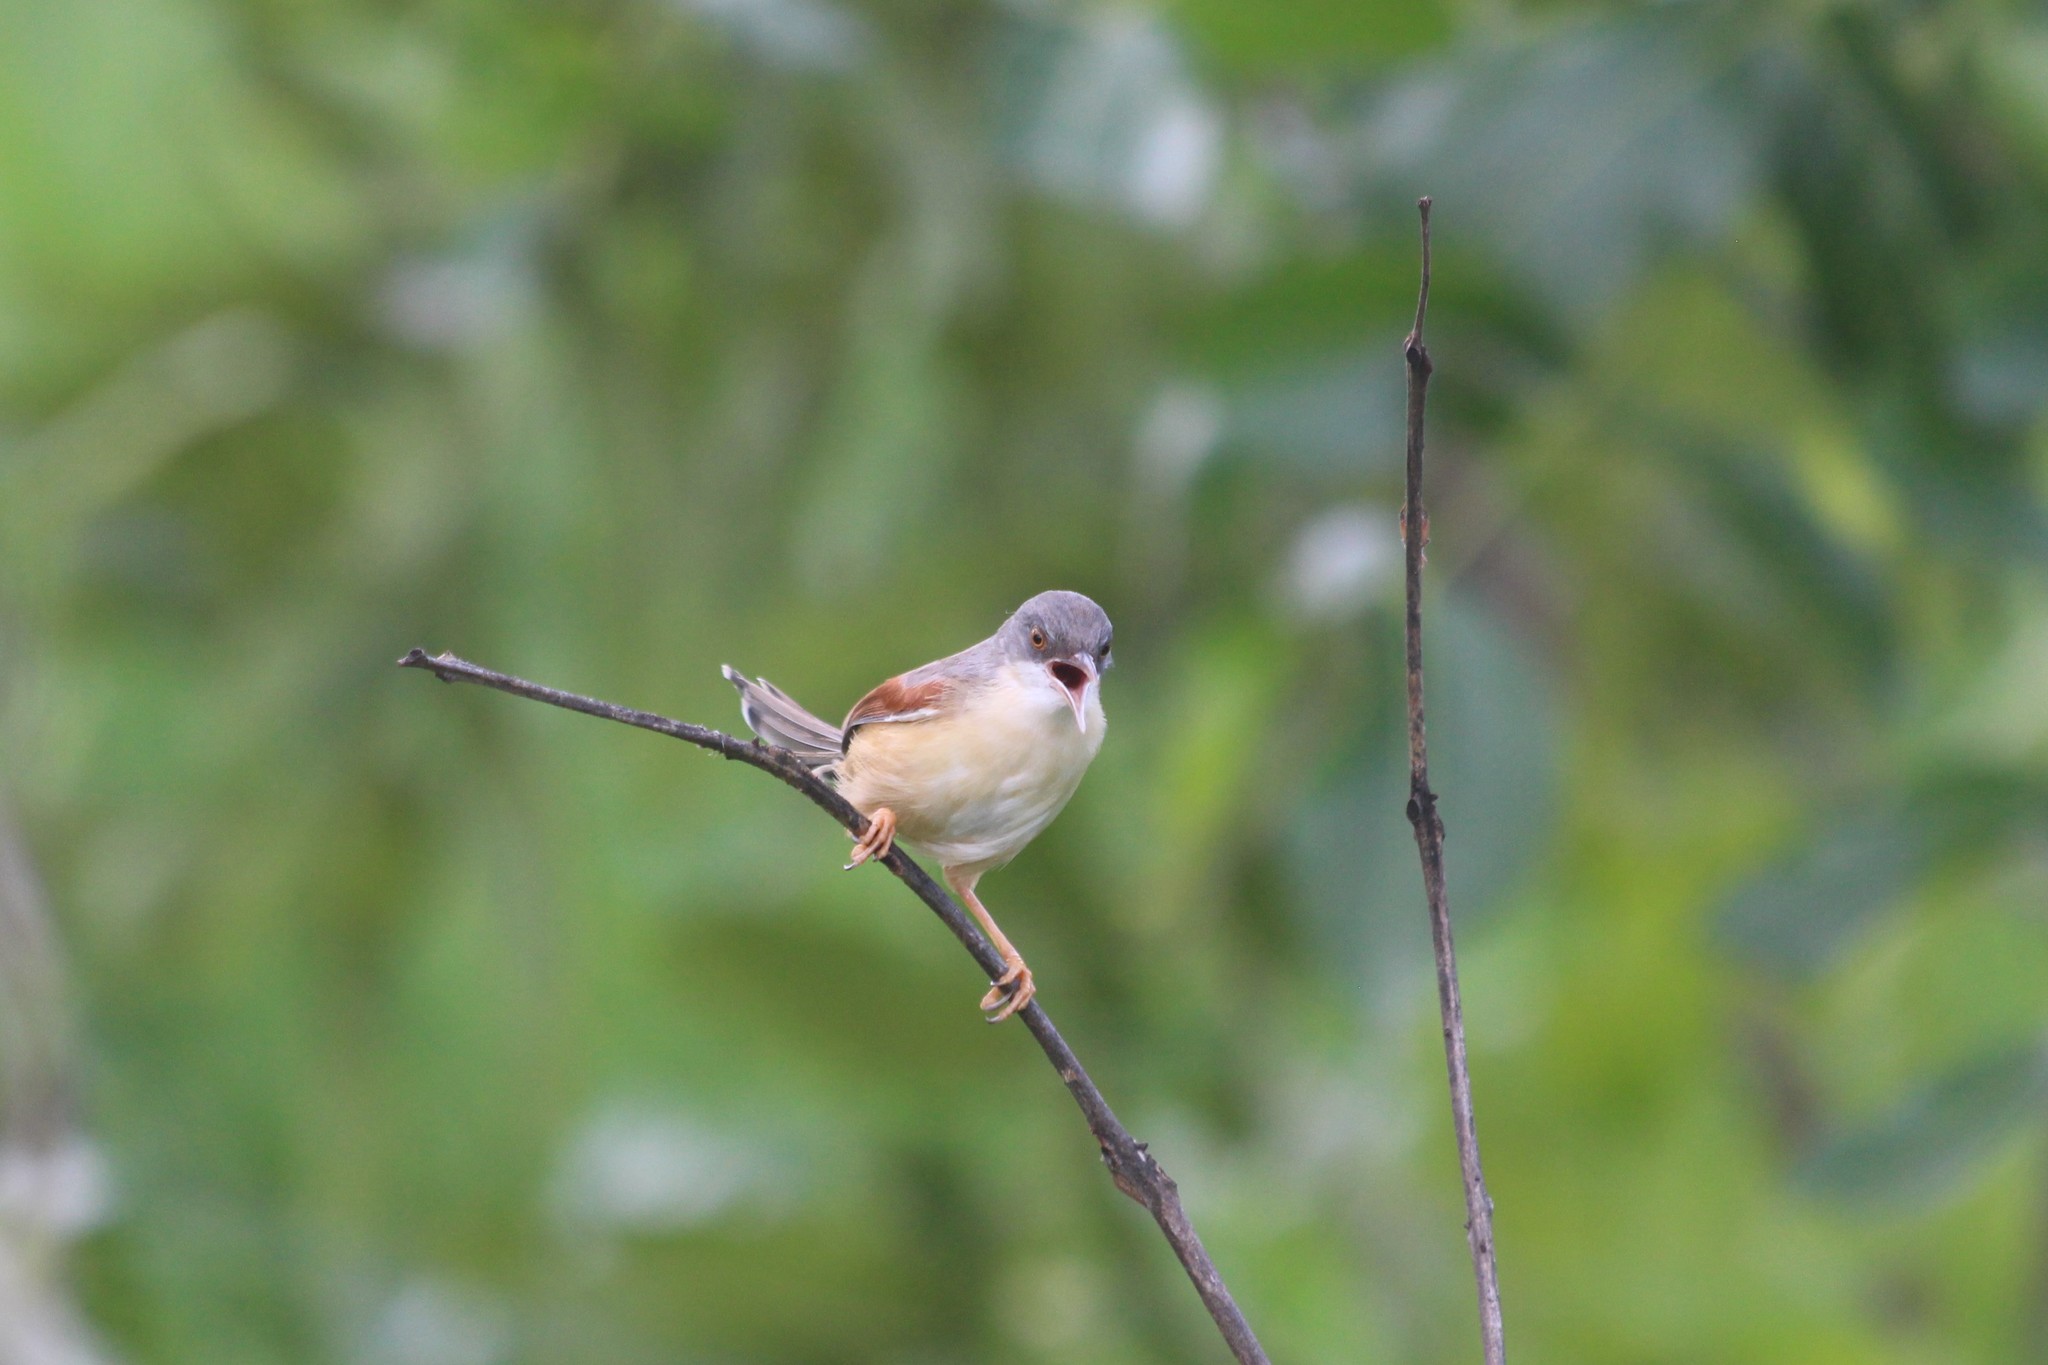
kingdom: Animalia
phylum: Chordata
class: Aves
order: Passeriformes
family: Cisticolidae
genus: Heliolais
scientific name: Heliolais erythropterus
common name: Red-winged warbler
